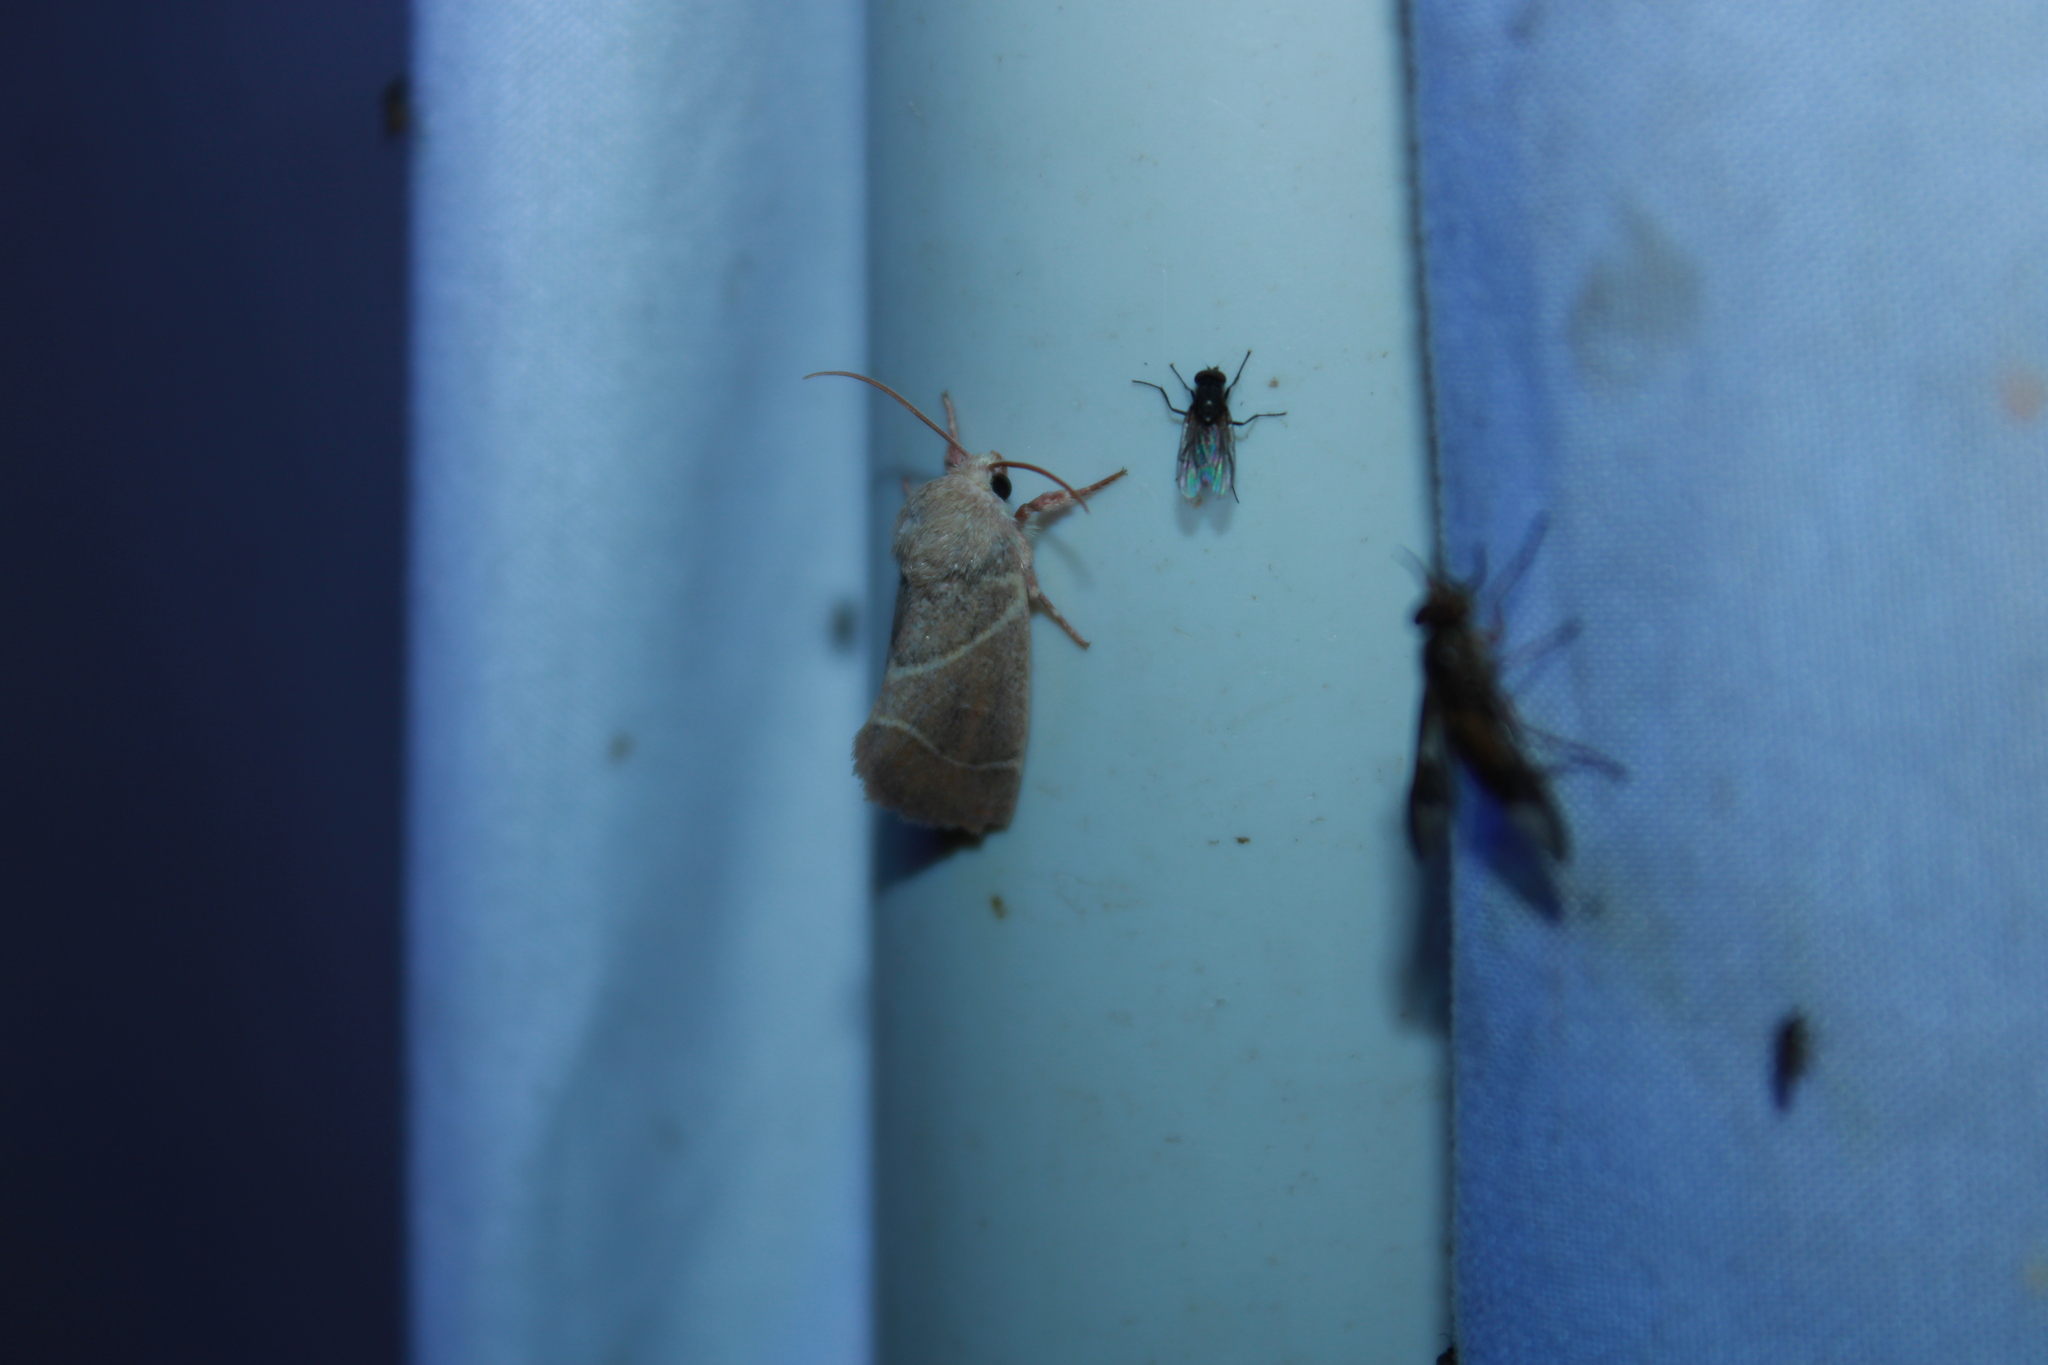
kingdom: Animalia
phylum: Arthropoda
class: Insecta
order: Lepidoptera
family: Noctuidae
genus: Cosmia
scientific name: Cosmia calami
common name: American dun-bar moth
